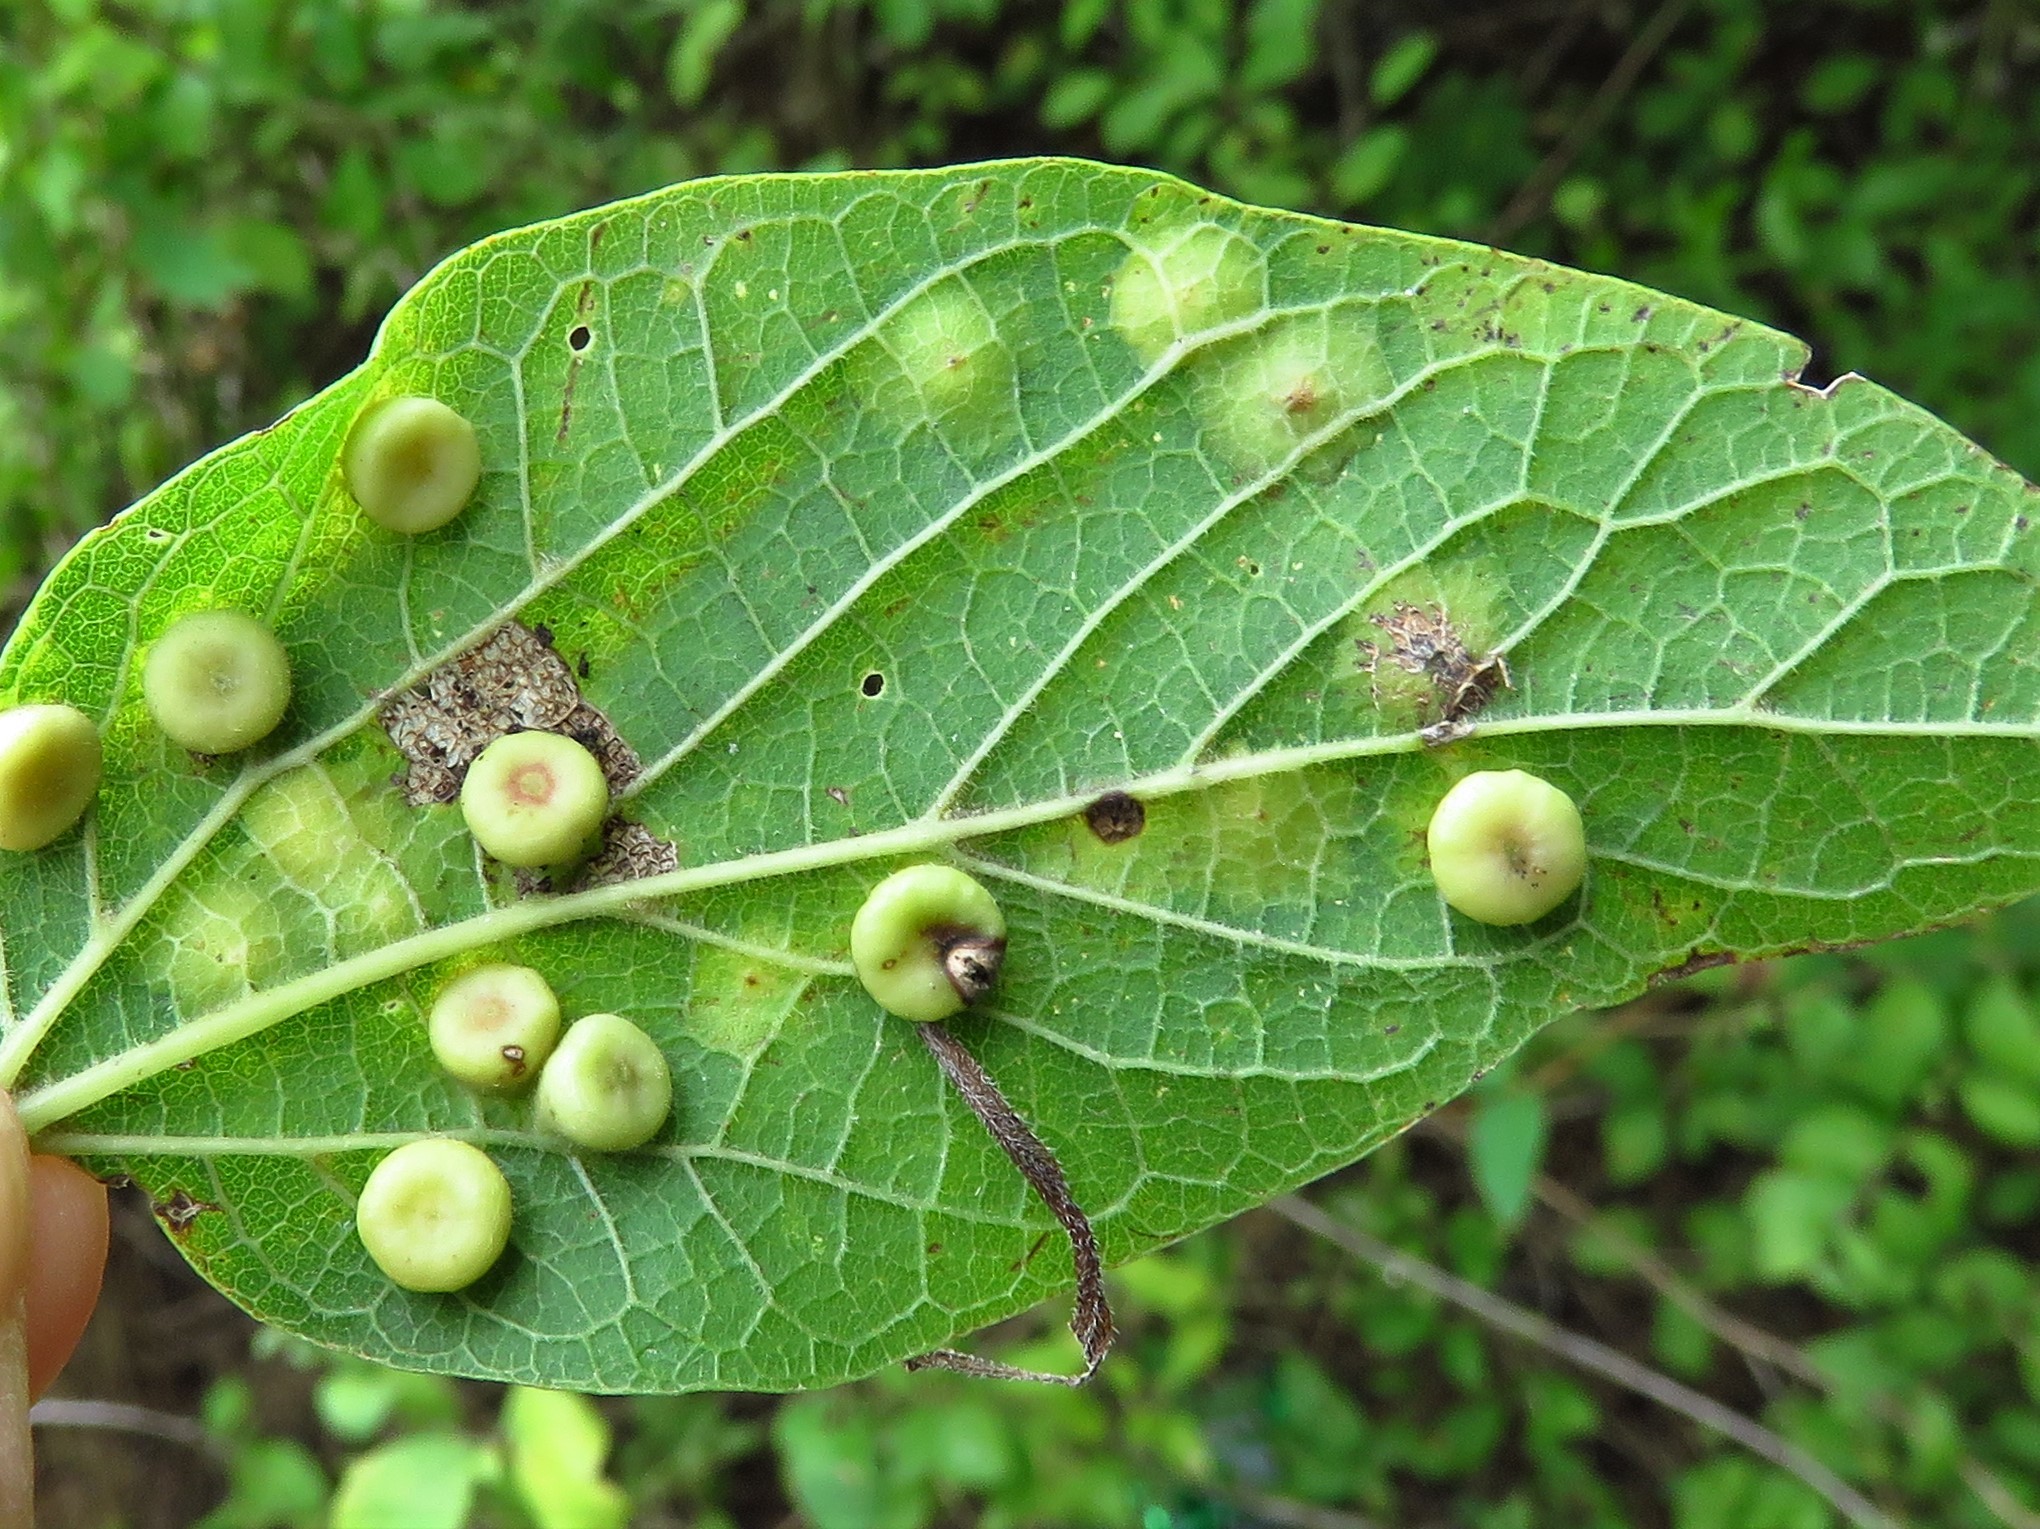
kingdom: Animalia
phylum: Arthropoda
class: Insecta
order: Hemiptera
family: Aphalaridae
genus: Pachypsylla
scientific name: Pachypsylla celtidismamma
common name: Hackberry nipplegall psyllid
